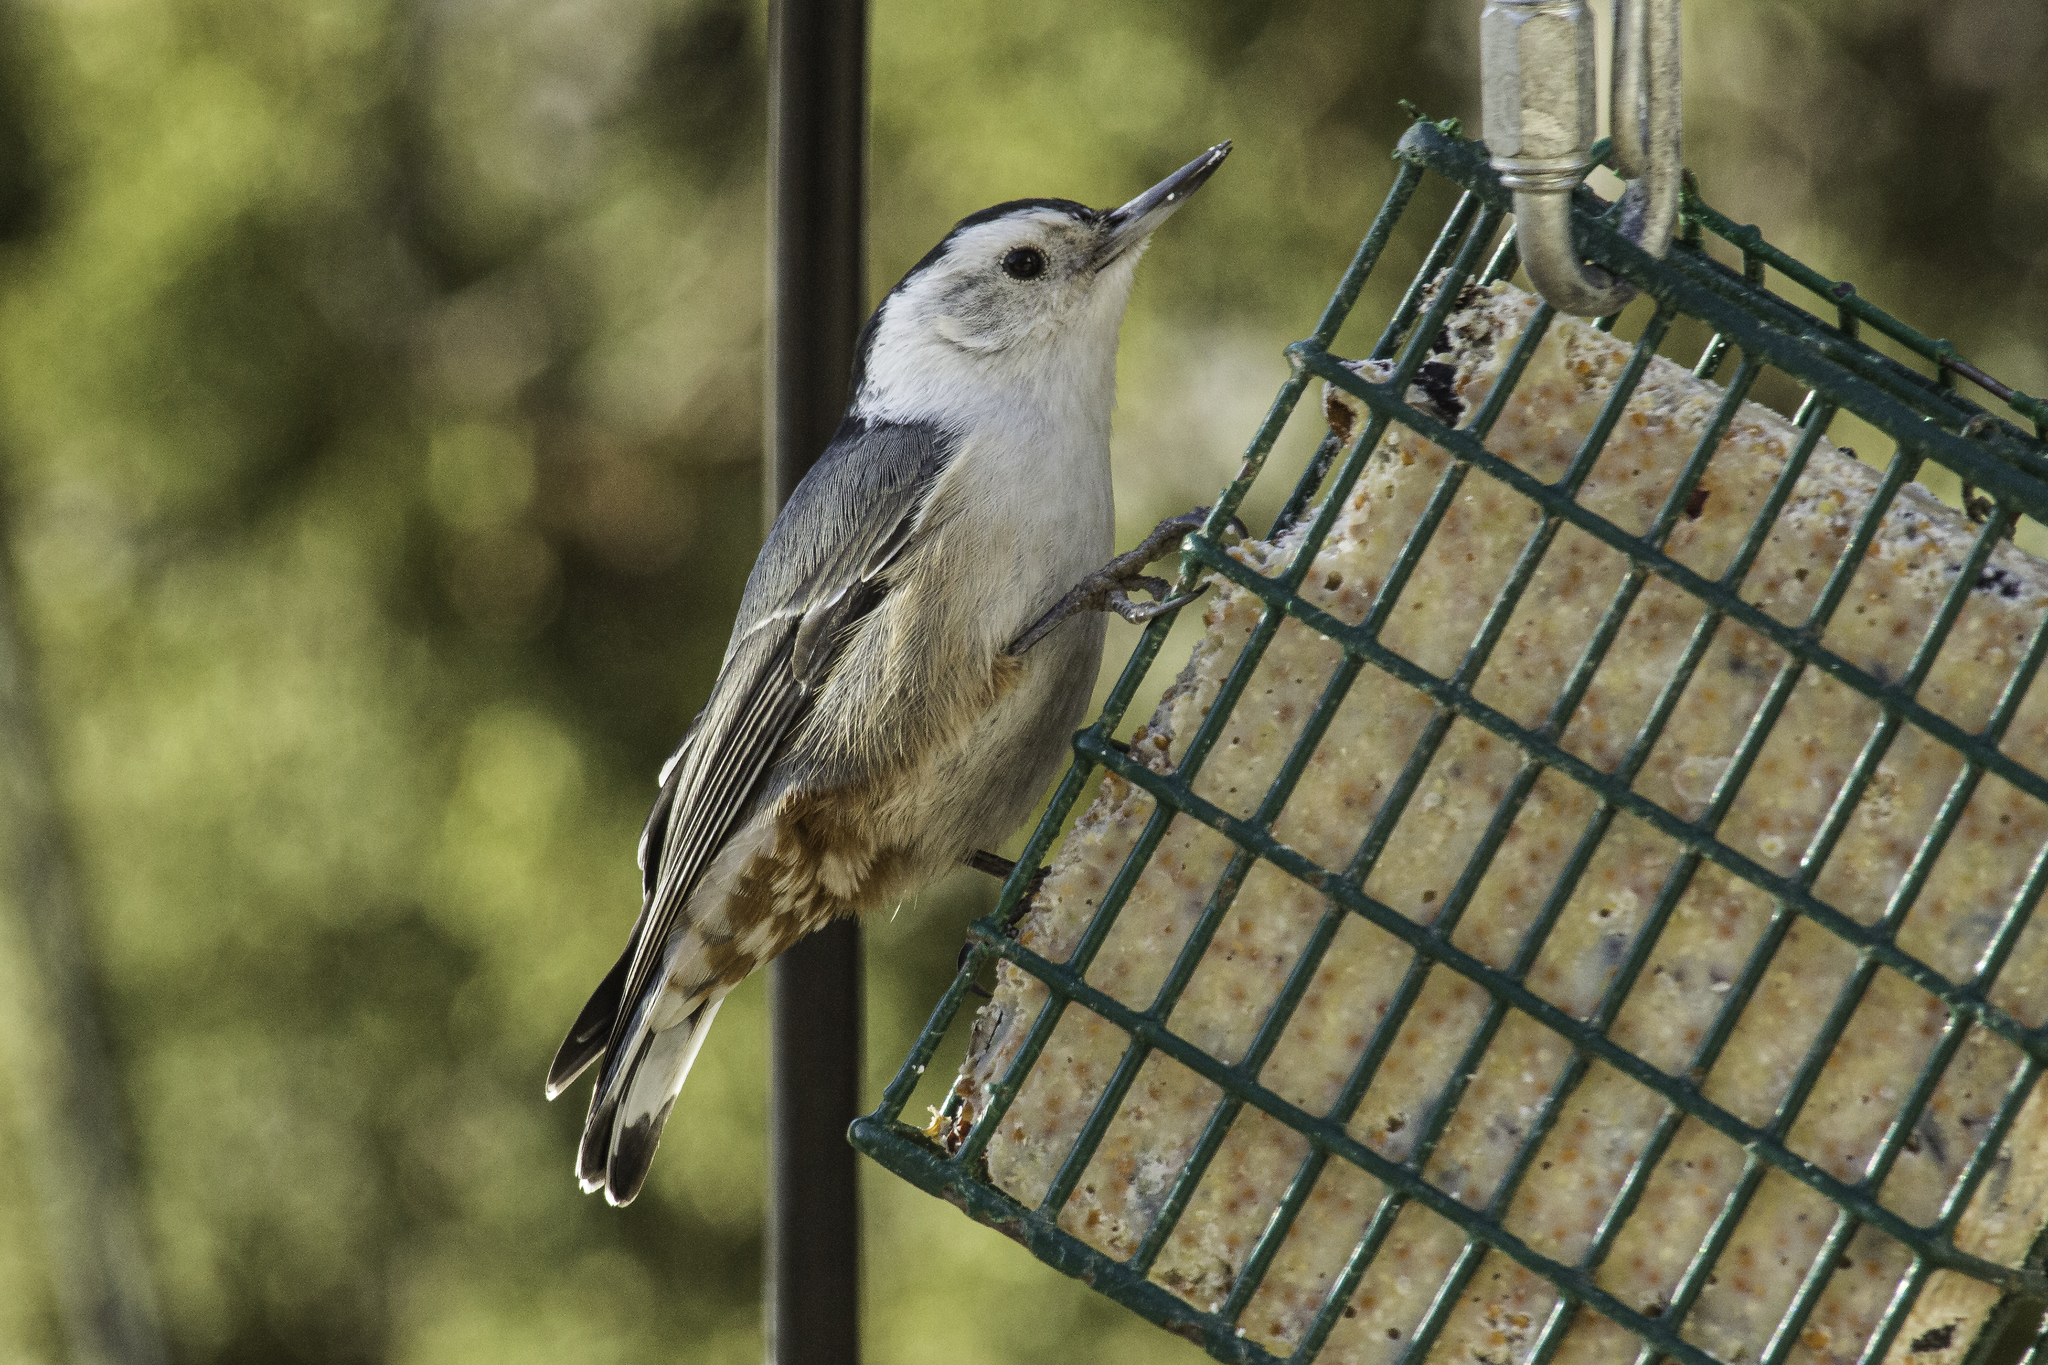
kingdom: Animalia
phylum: Chordata
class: Aves
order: Passeriformes
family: Sittidae
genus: Sitta
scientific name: Sitta carolinensis
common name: White-breasted nuthatch
